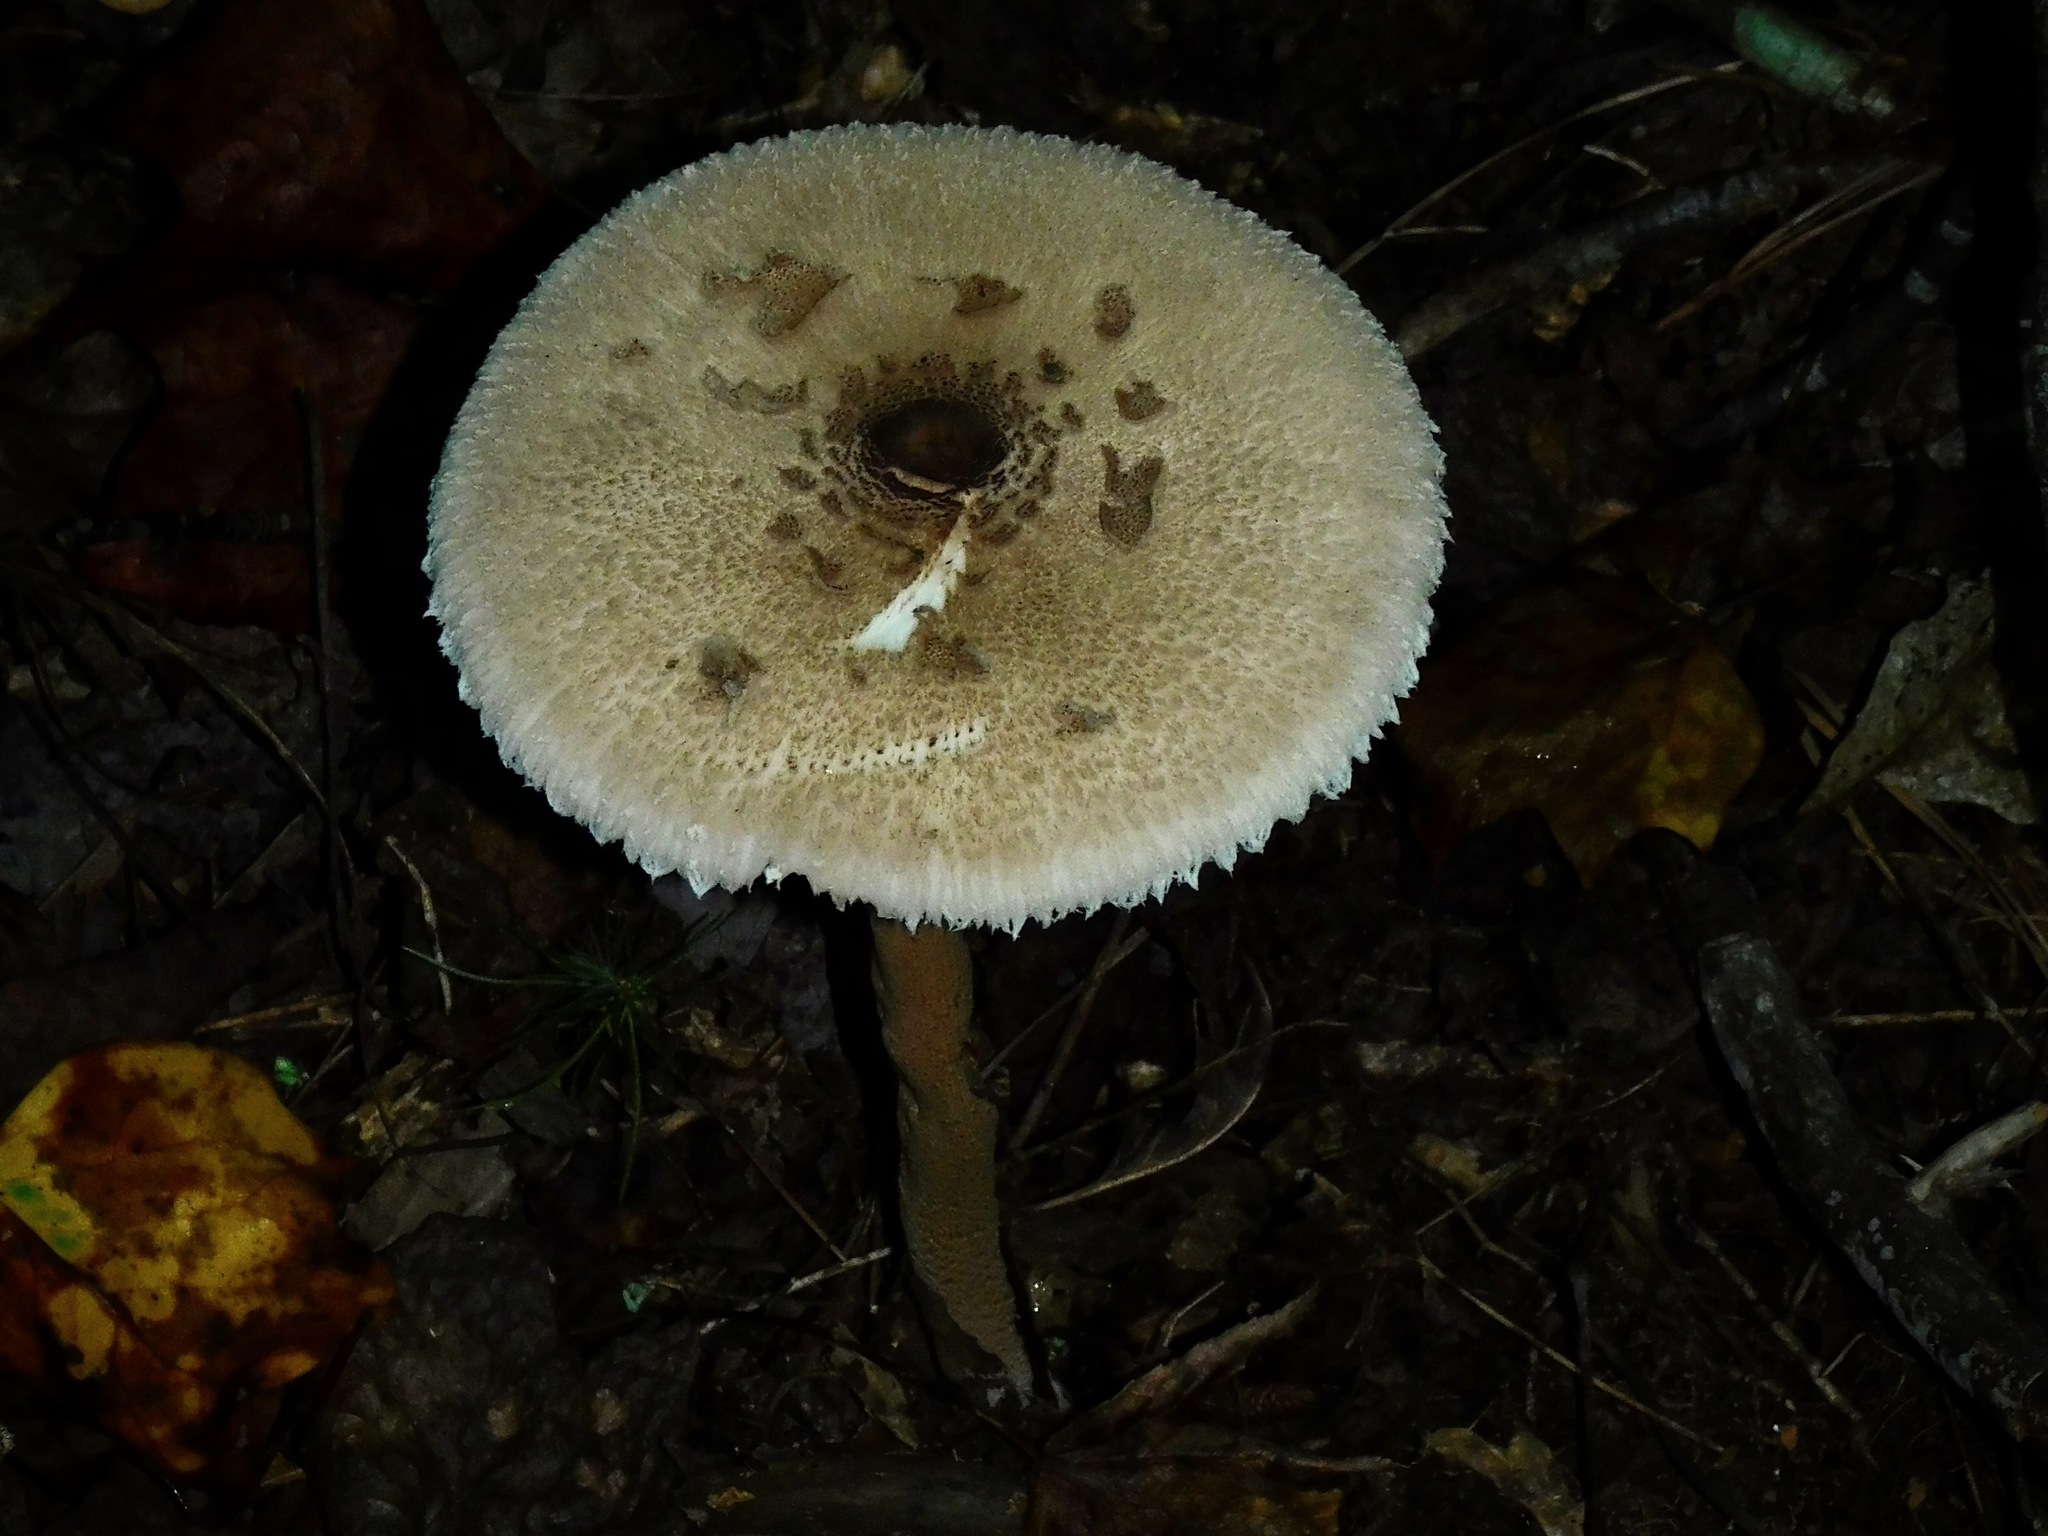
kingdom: Fungi
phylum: Basidiomycota
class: Agaricomycetes
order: Agaricales
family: Agaricaceae
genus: Macrolepiota
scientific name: Macrolepiota procera
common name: Parasol
